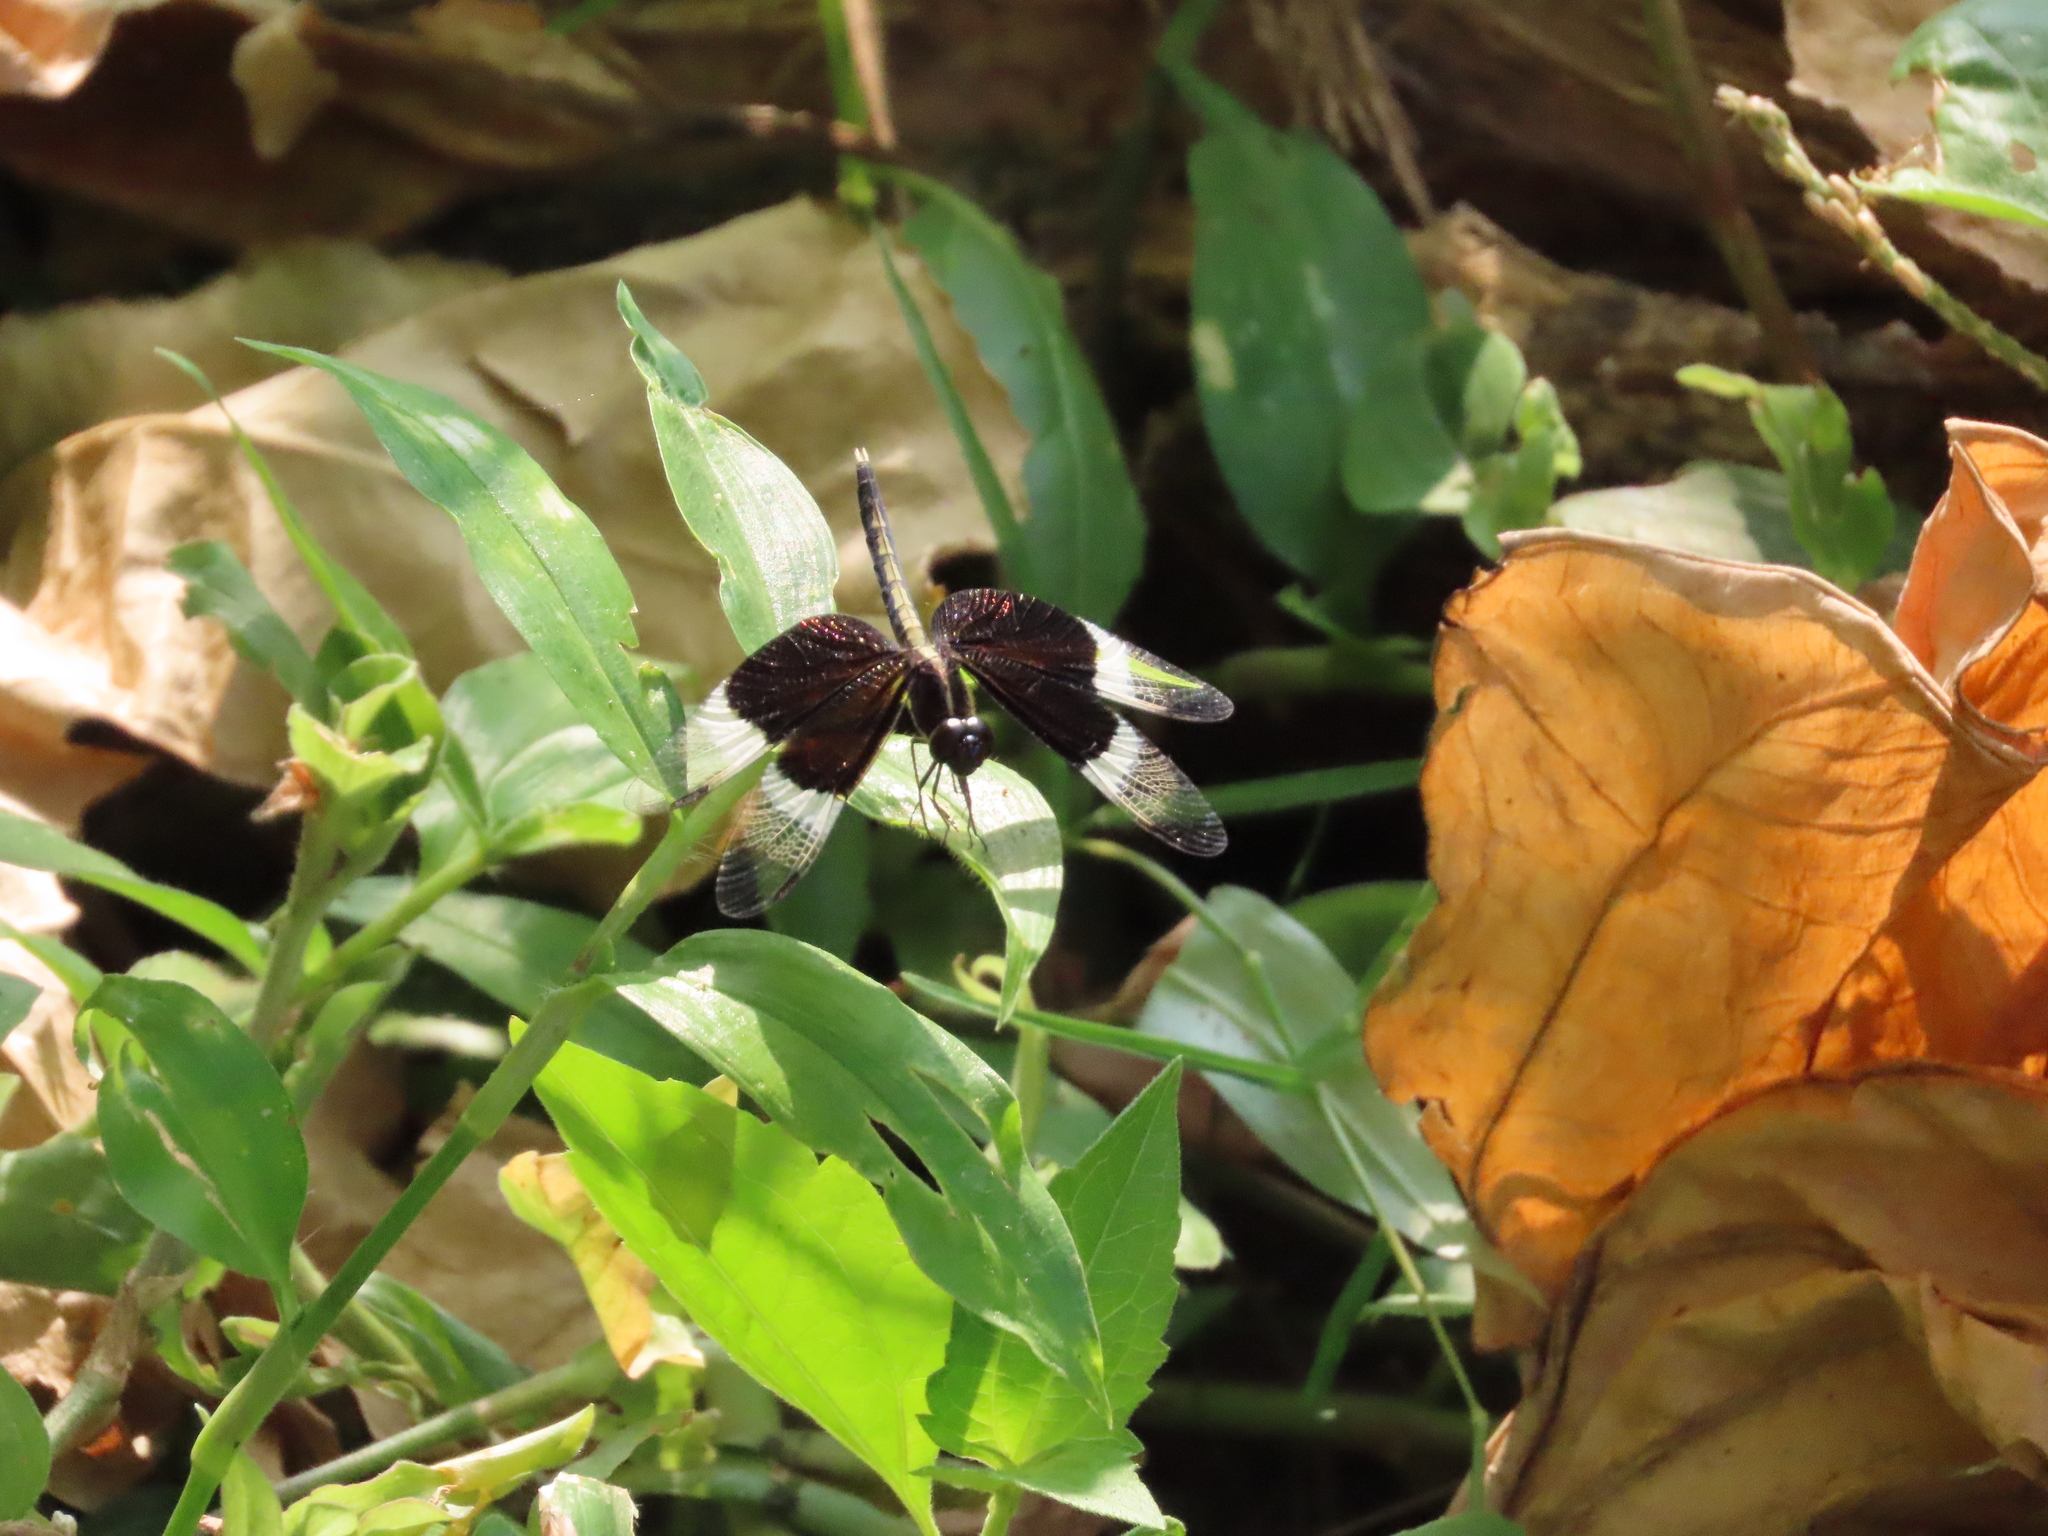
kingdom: Animalia
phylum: Arthropoda
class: Insecta
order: Odonata
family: Libellulidae
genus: Neurothemis
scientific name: Neurothemis tullia
